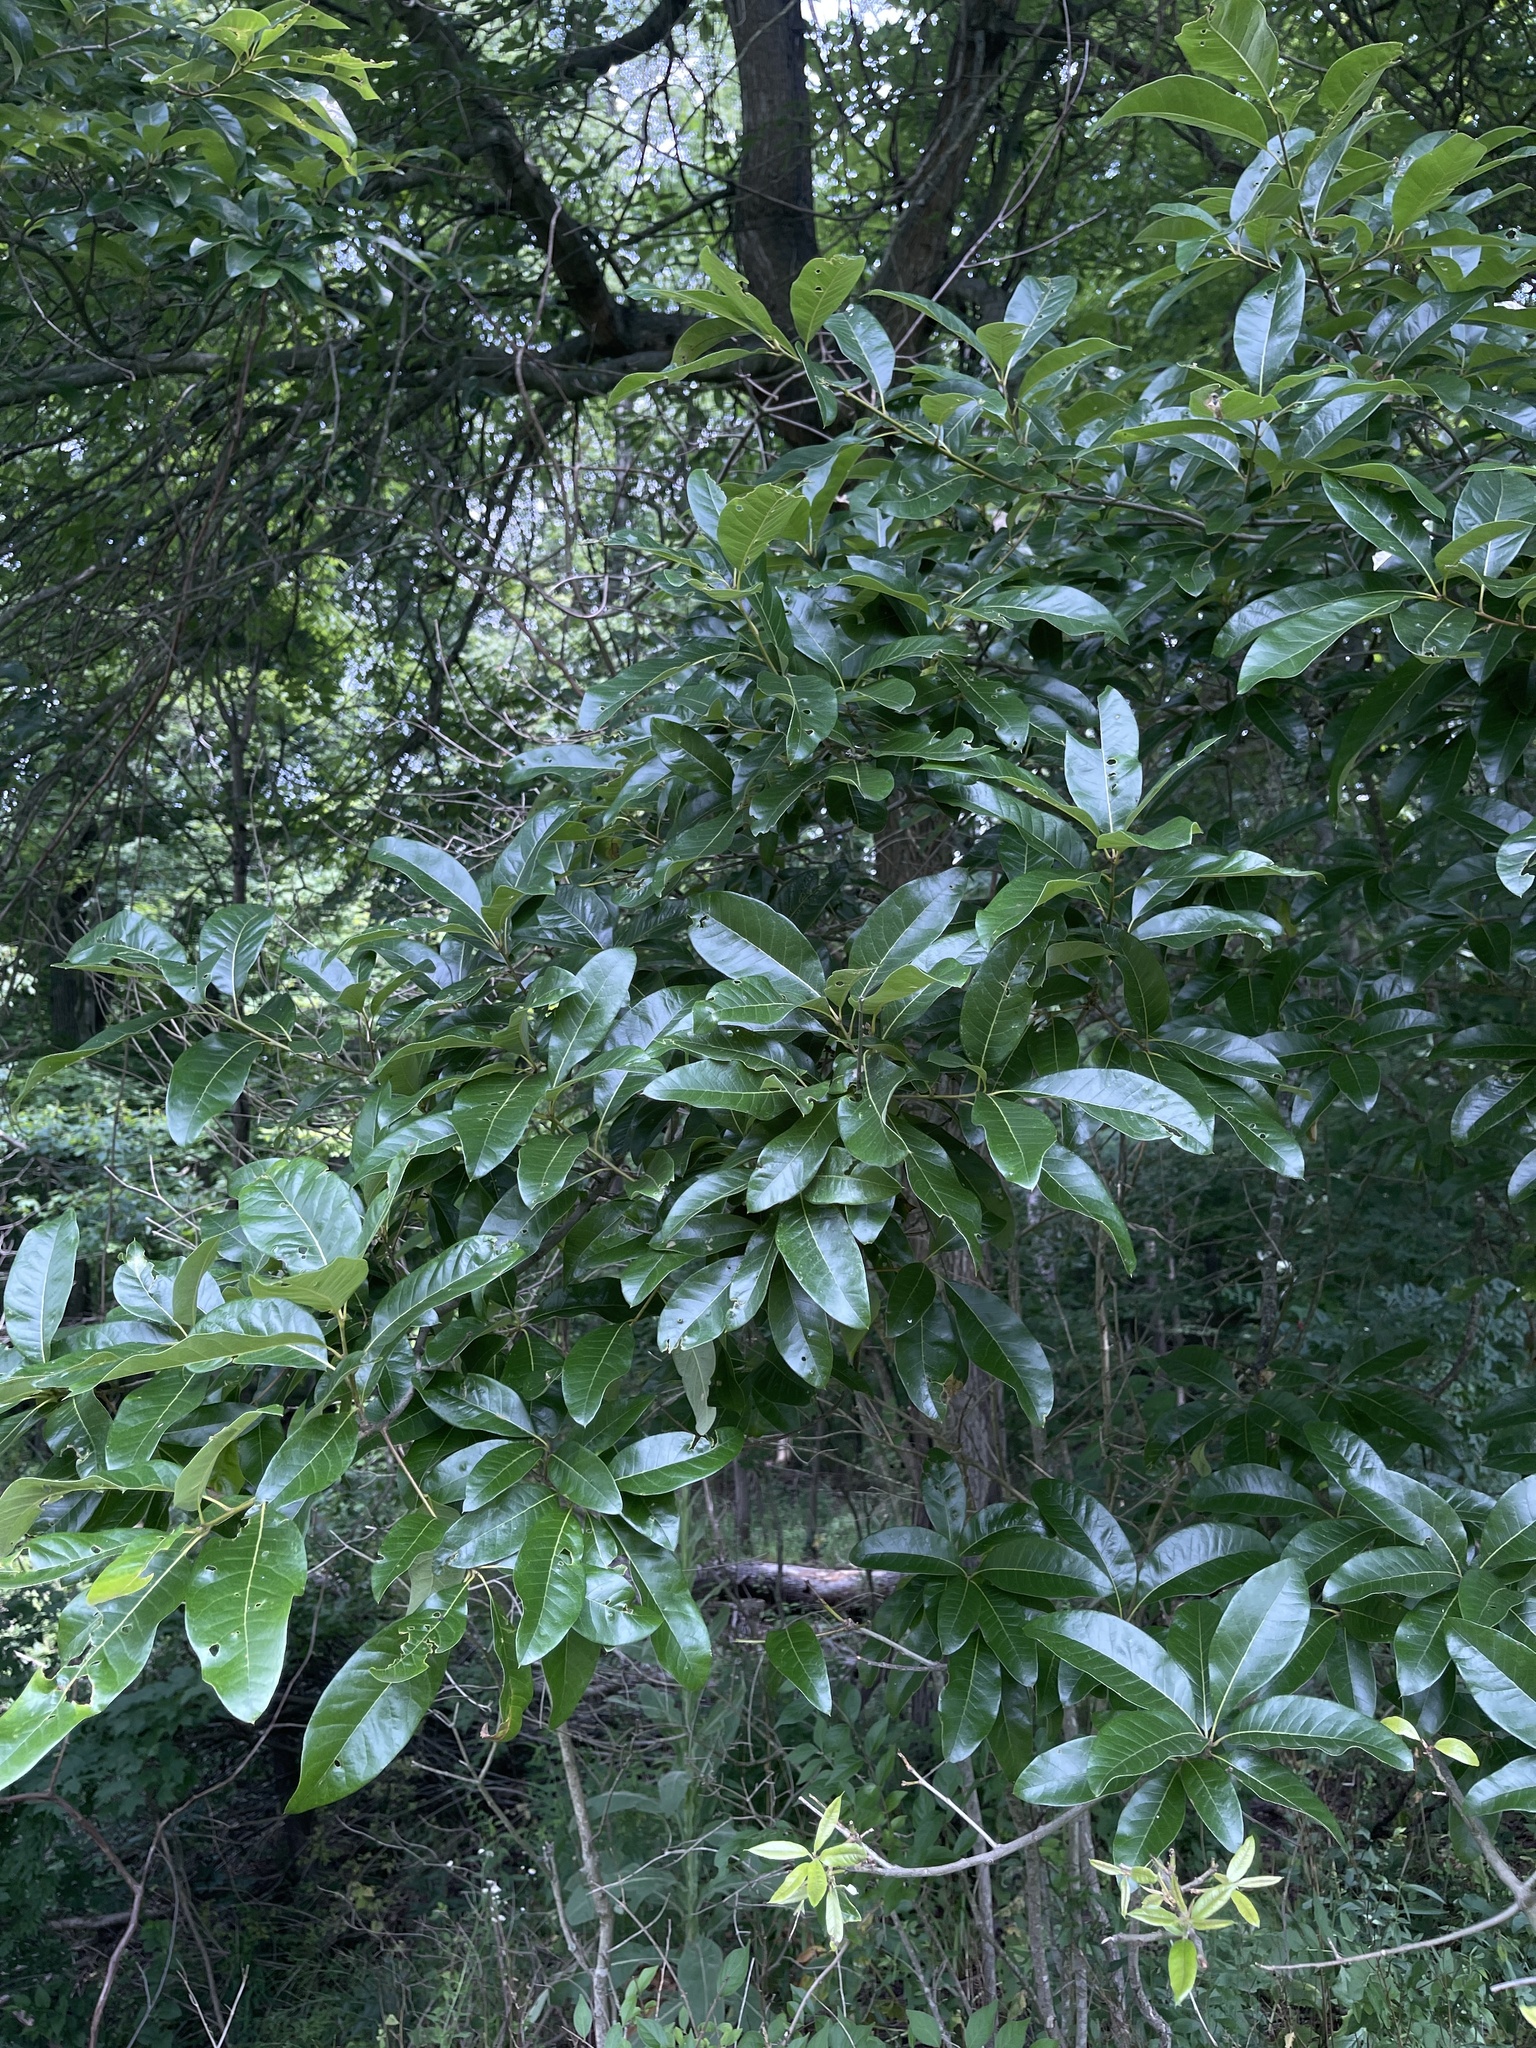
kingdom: Plantae
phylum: Tracheophyta
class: Magnoliopsida
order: Fagales
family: Fagaceae
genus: Quercus
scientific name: Quercus imbricaria
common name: Shingle oak
